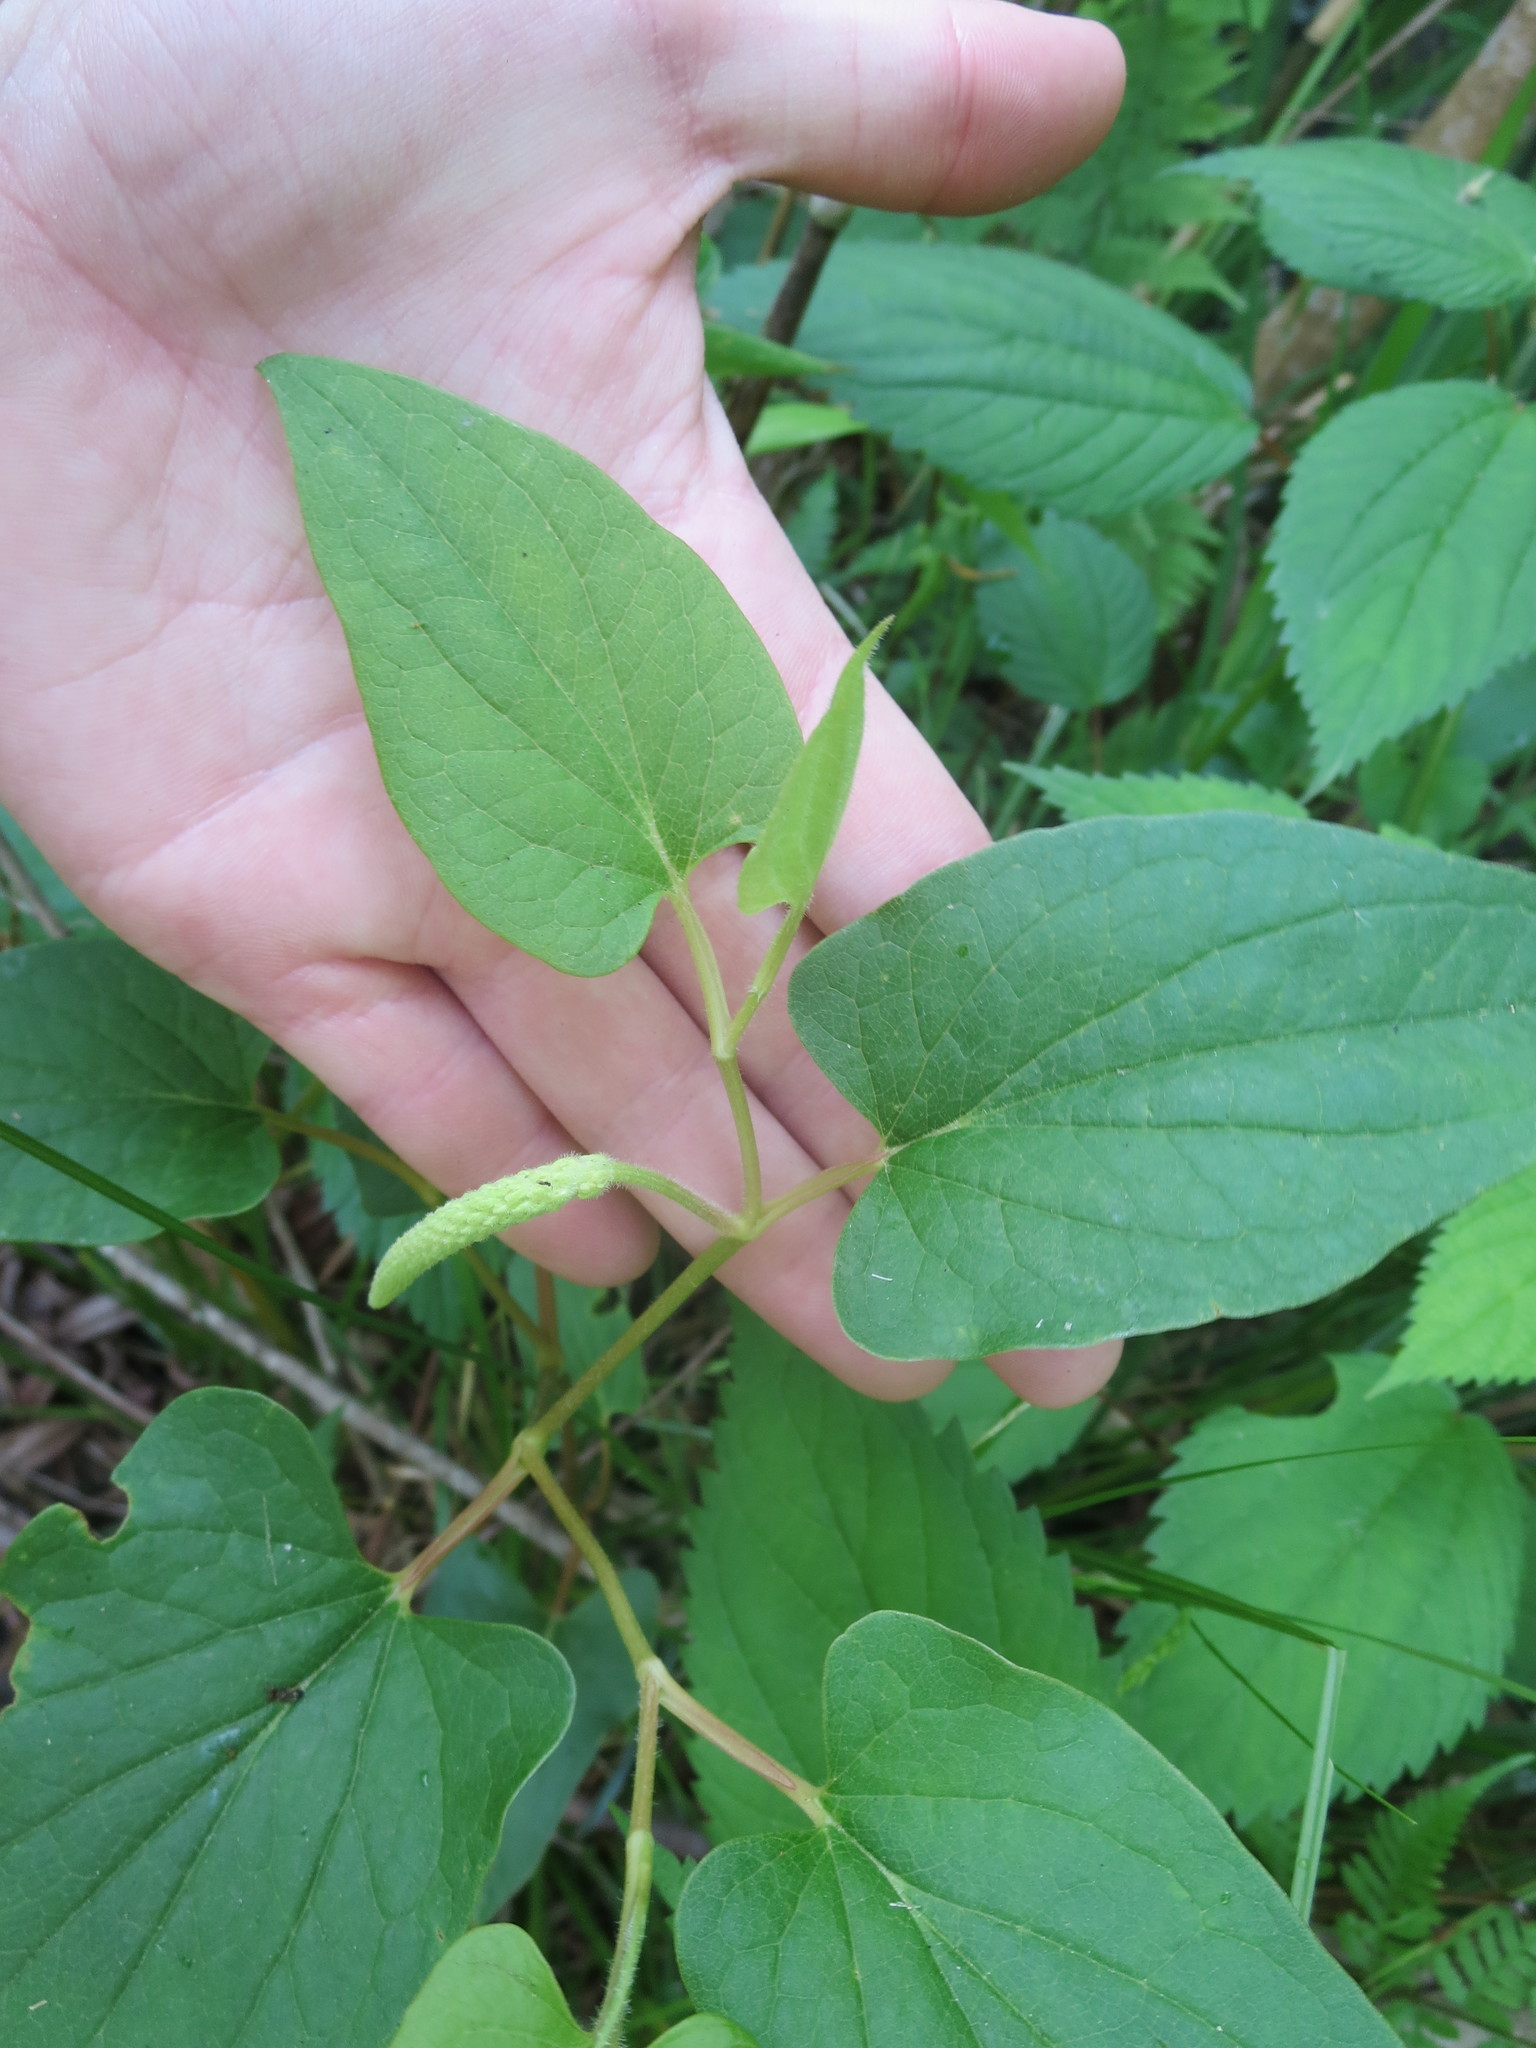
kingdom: Plantae
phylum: Tracheophyta
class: Magnoliopsida
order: Piperales
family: Saururaceae
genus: Saururus
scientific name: Saururus cernuus
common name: Lizard's-tail
